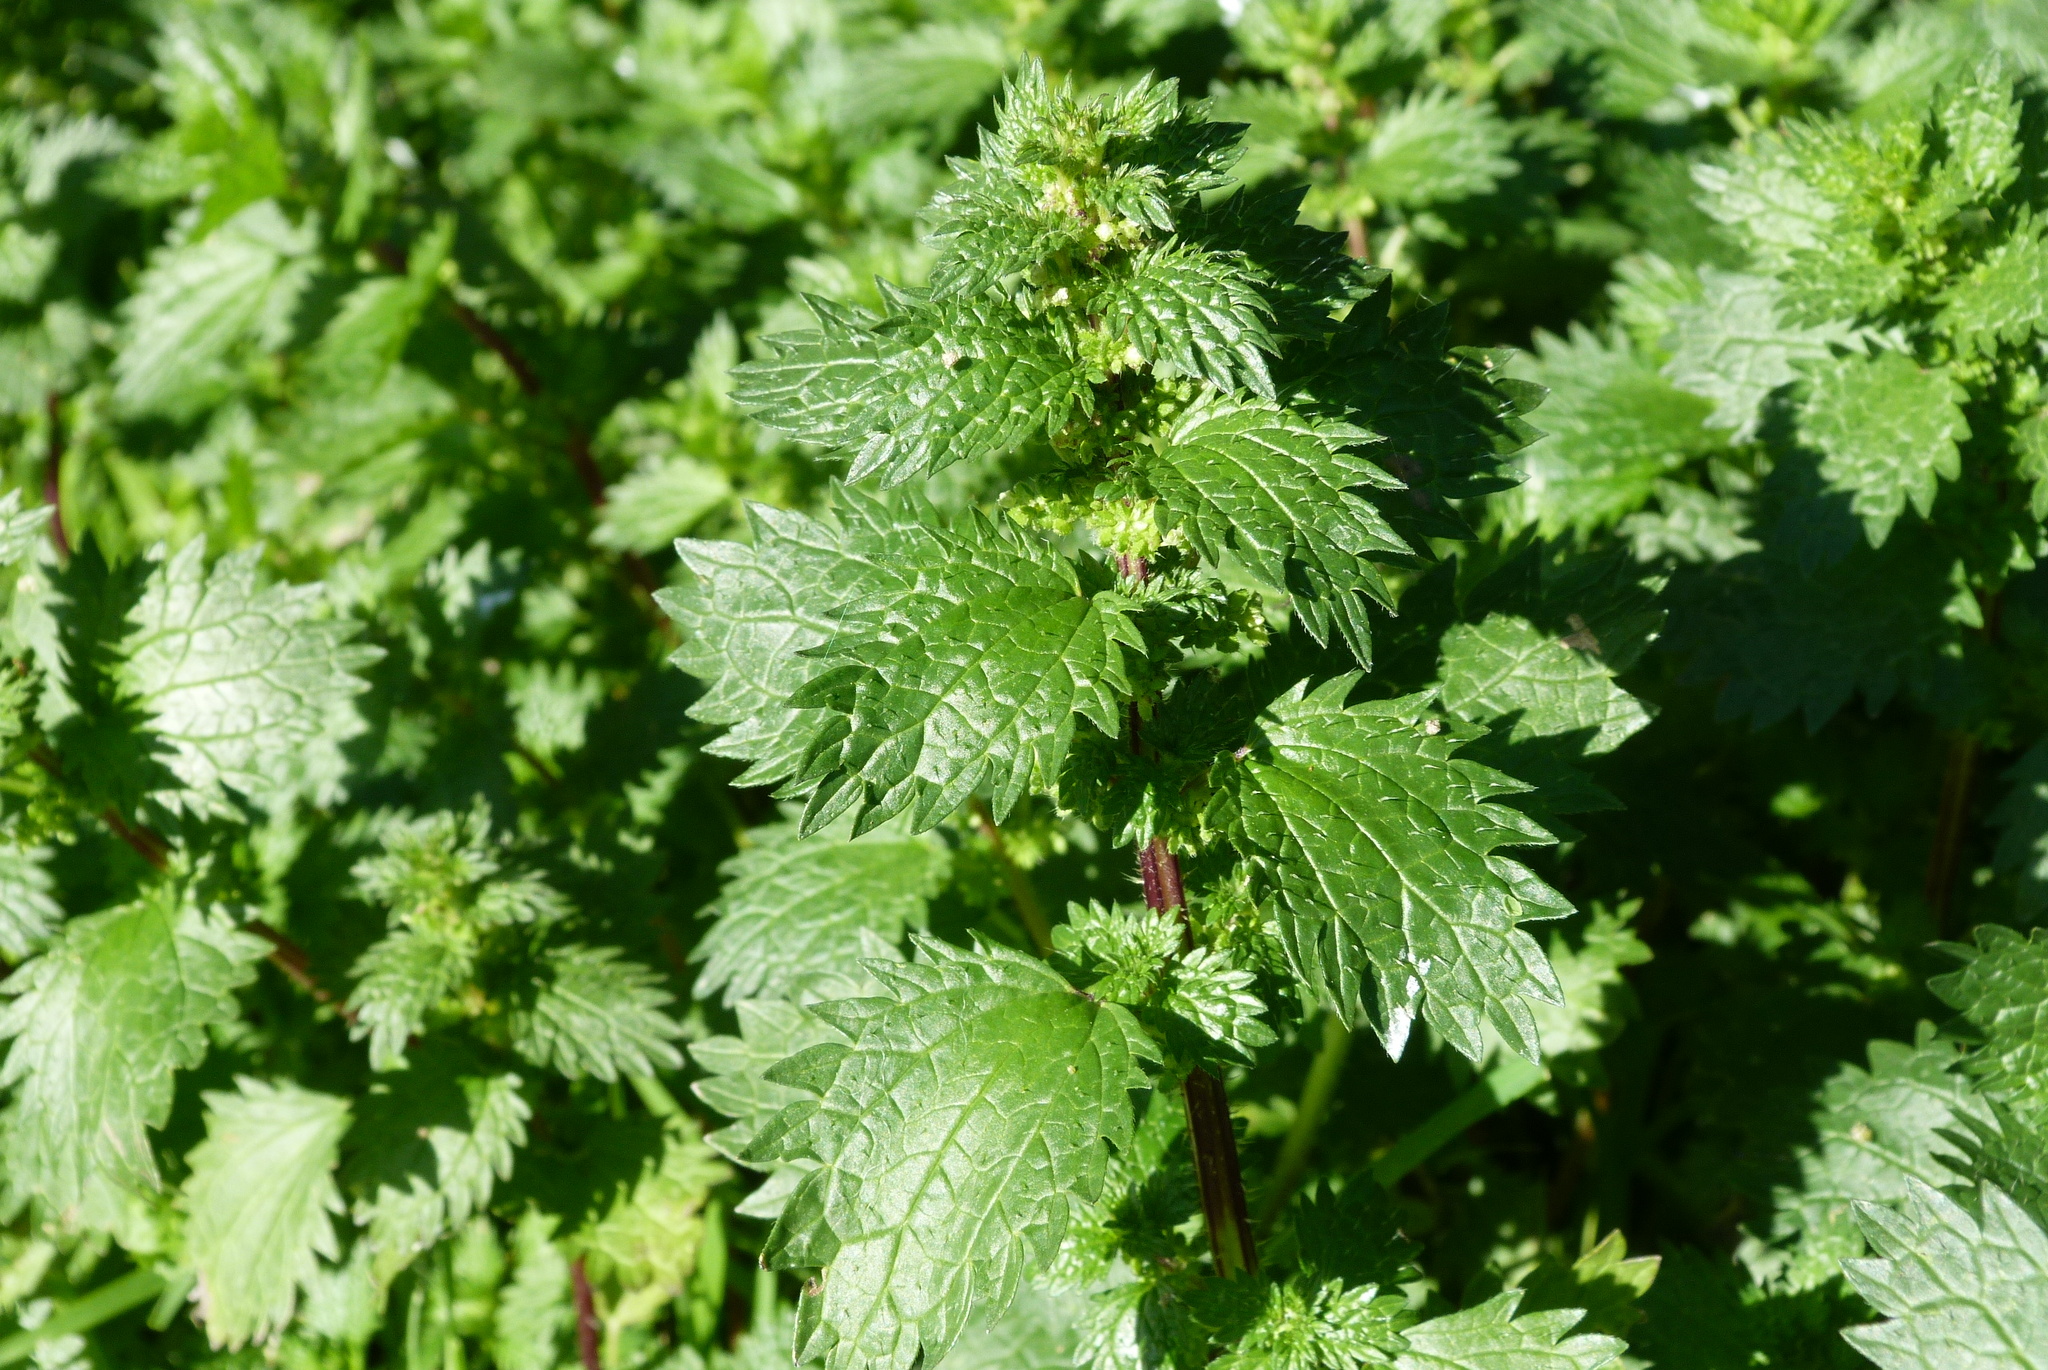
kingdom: Plantae
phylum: Tracheophyta
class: Magnoliopsida
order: Rosales
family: Urticaceae
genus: Urtica
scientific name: Urtica urens
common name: Dwarf nettle
